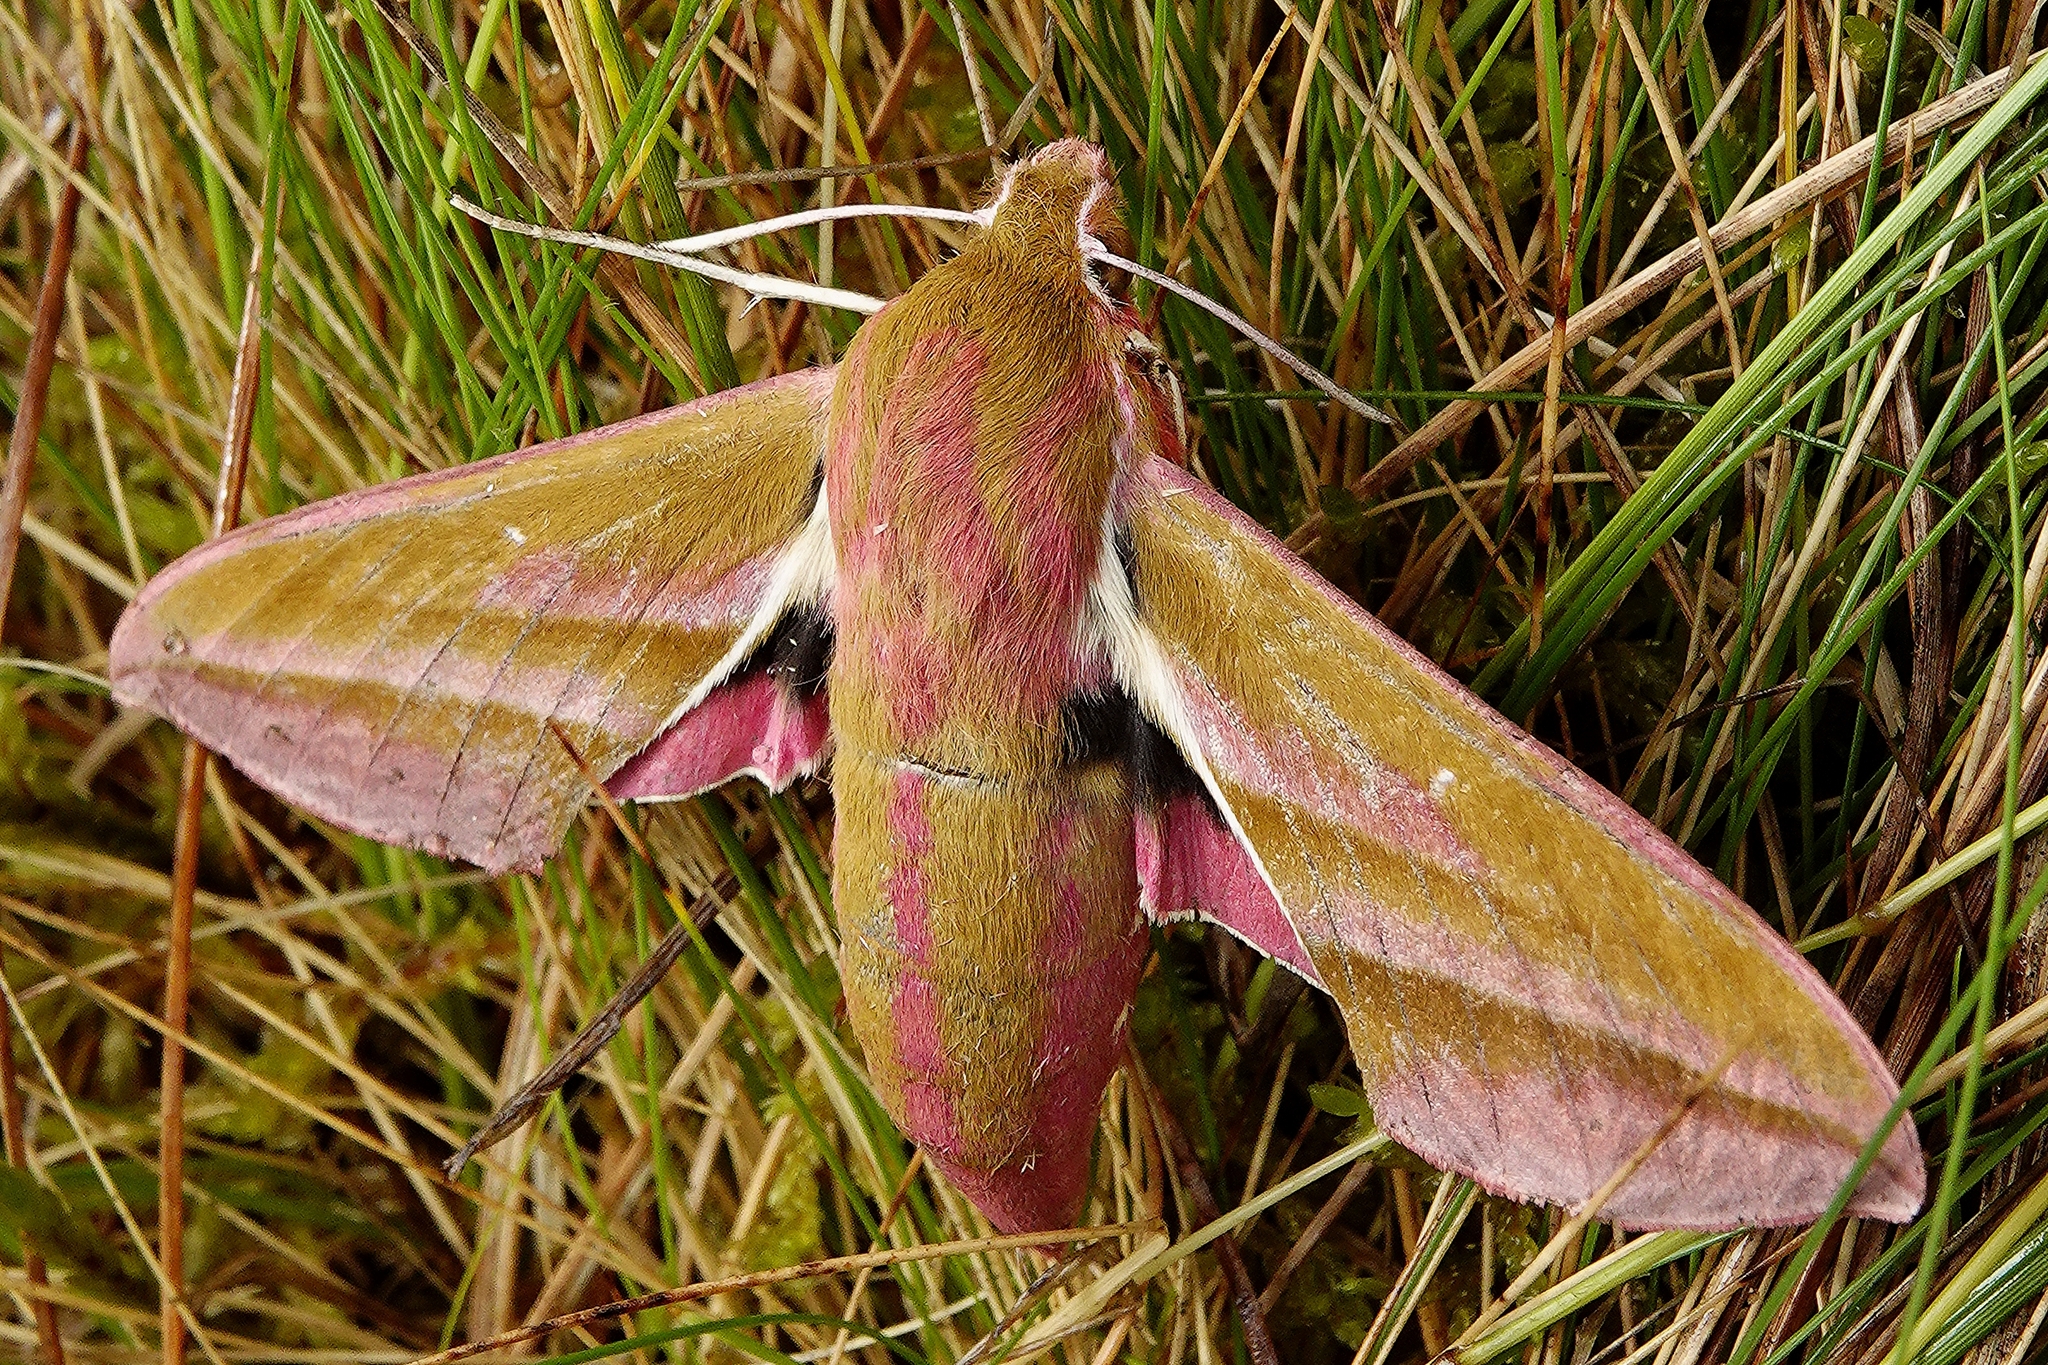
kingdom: Animalia
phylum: Arthropoda
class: Insecta
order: Lepidoptera
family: Sphingidae
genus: Deilephila
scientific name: Deilephila elpenor
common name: Elephant hawk-moth
